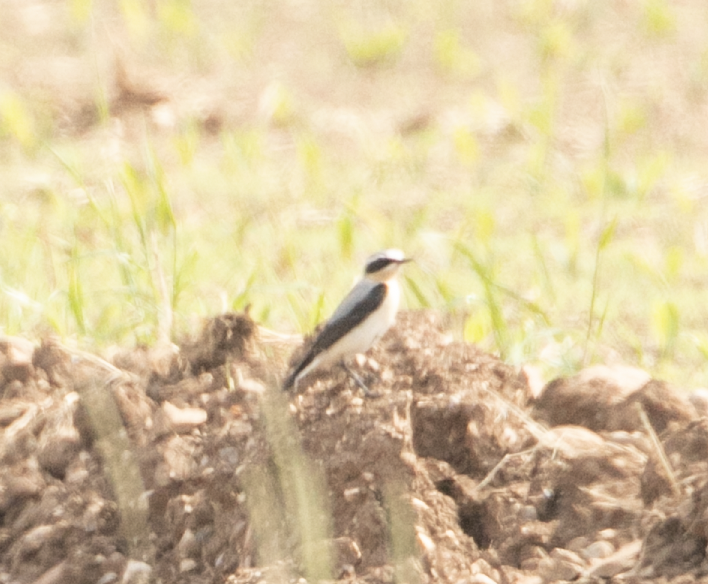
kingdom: Animalia
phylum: Chordata
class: Aves
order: Passeriformes
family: Muscicapidae
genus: Oenanthe
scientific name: Oenanthe oenanthe
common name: Northern wheatear
